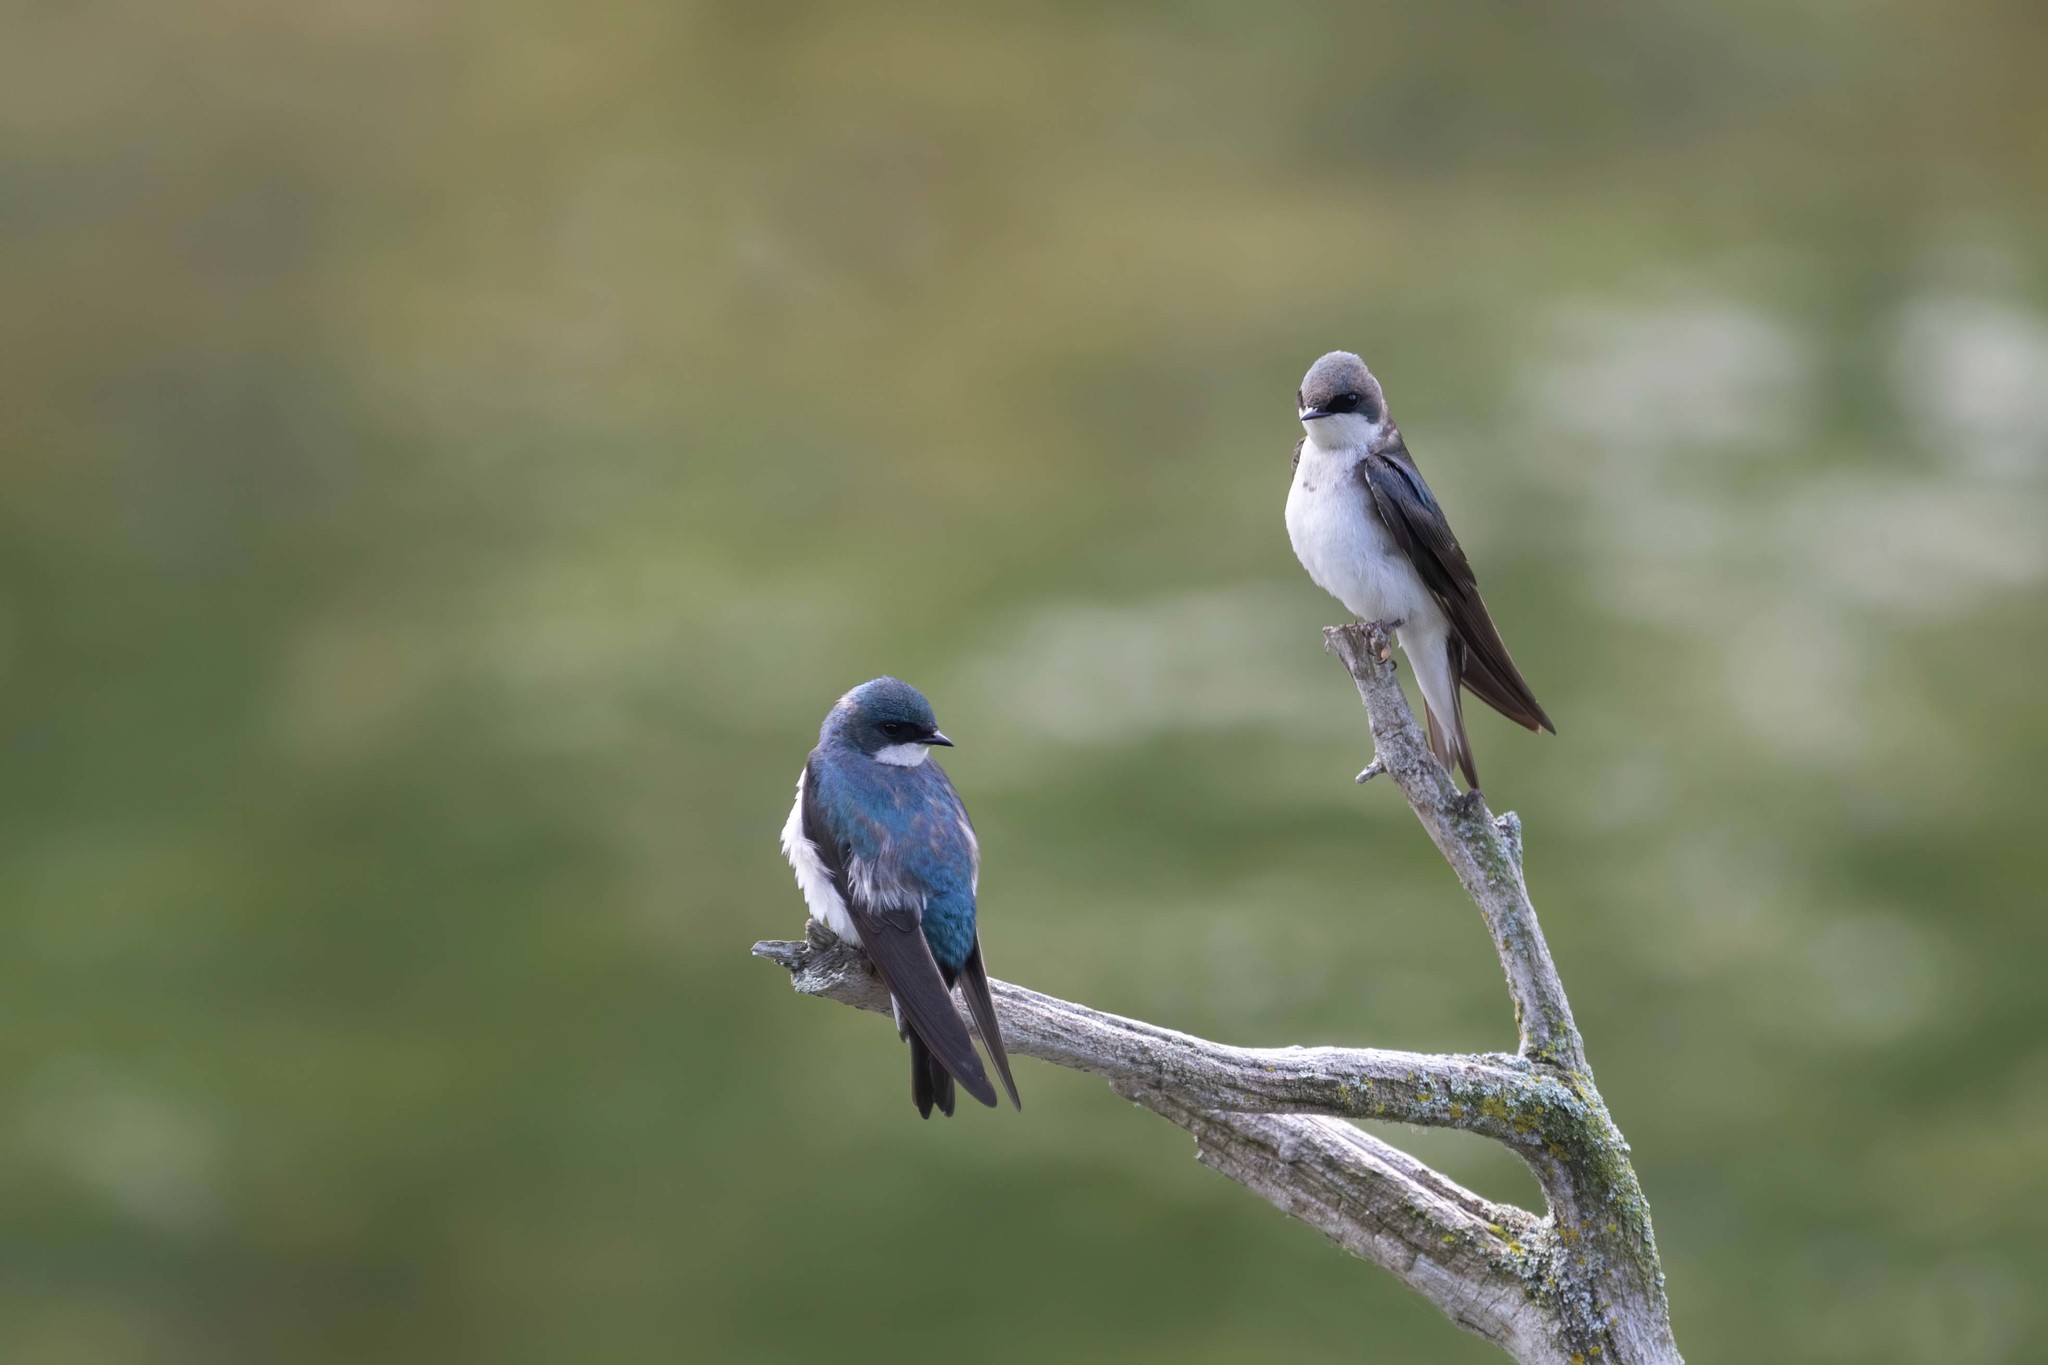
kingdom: Animalia
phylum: Chordata
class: Aves
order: Passeriformes
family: Hirundinidae
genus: Tachycineta
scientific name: Tachycineta bicolor
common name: Tree swallow
